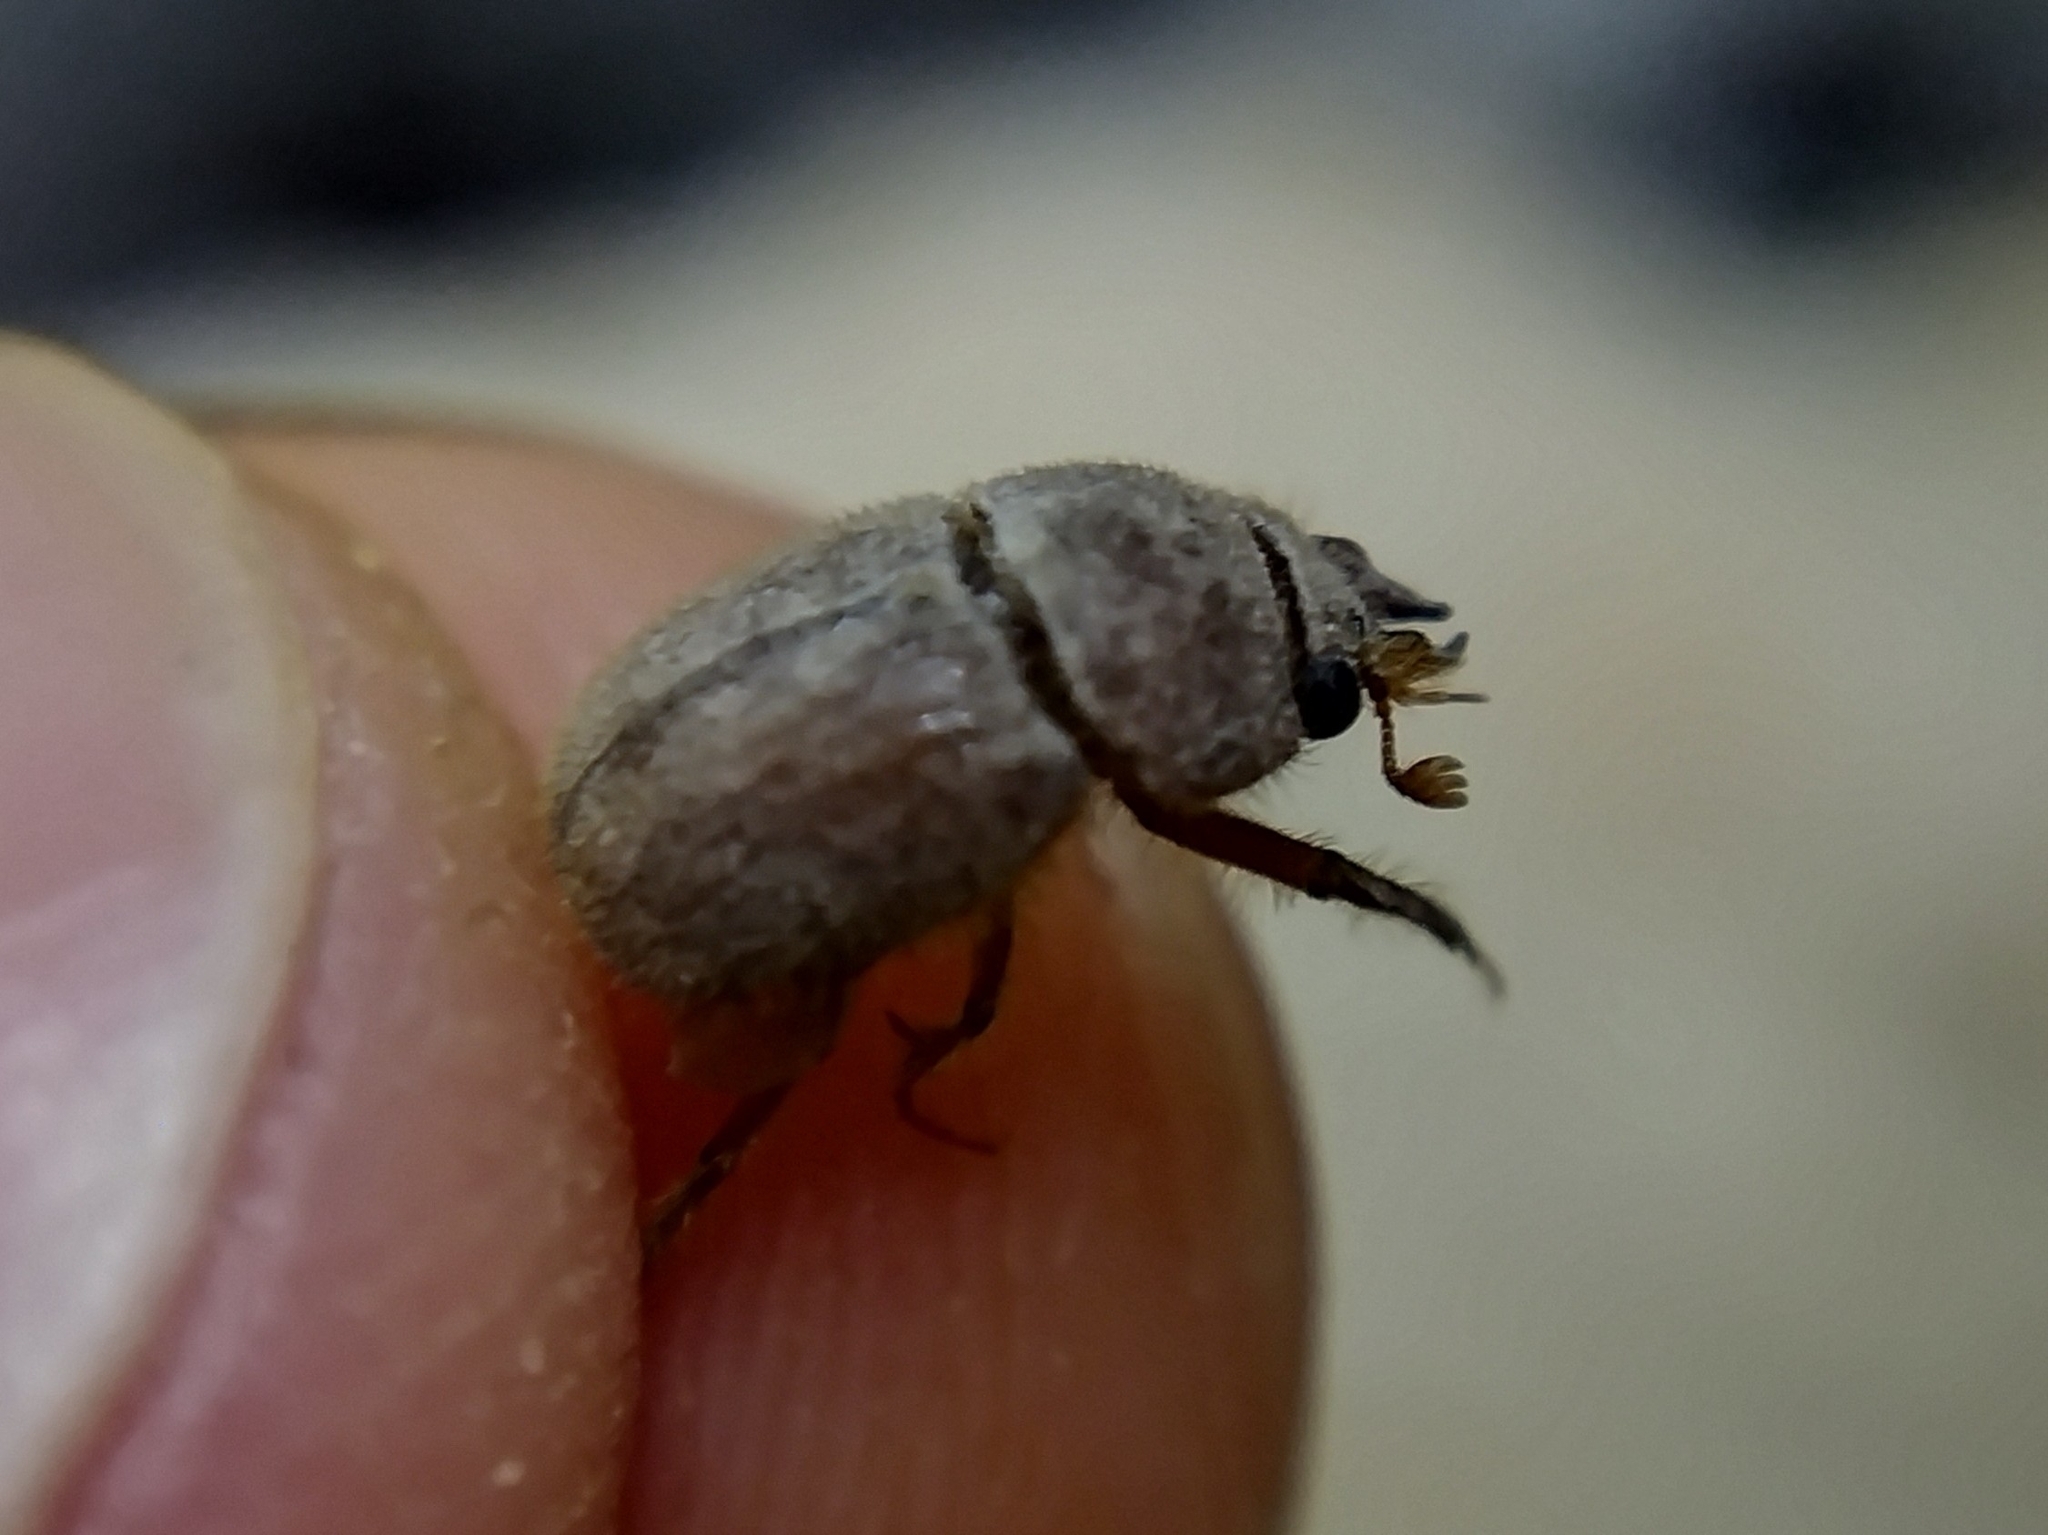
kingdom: Animalia
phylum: Arthropoda
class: Insecta
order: Coleoptera
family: Ochodaeidae
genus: Codocera
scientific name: Codocera ferruginea
